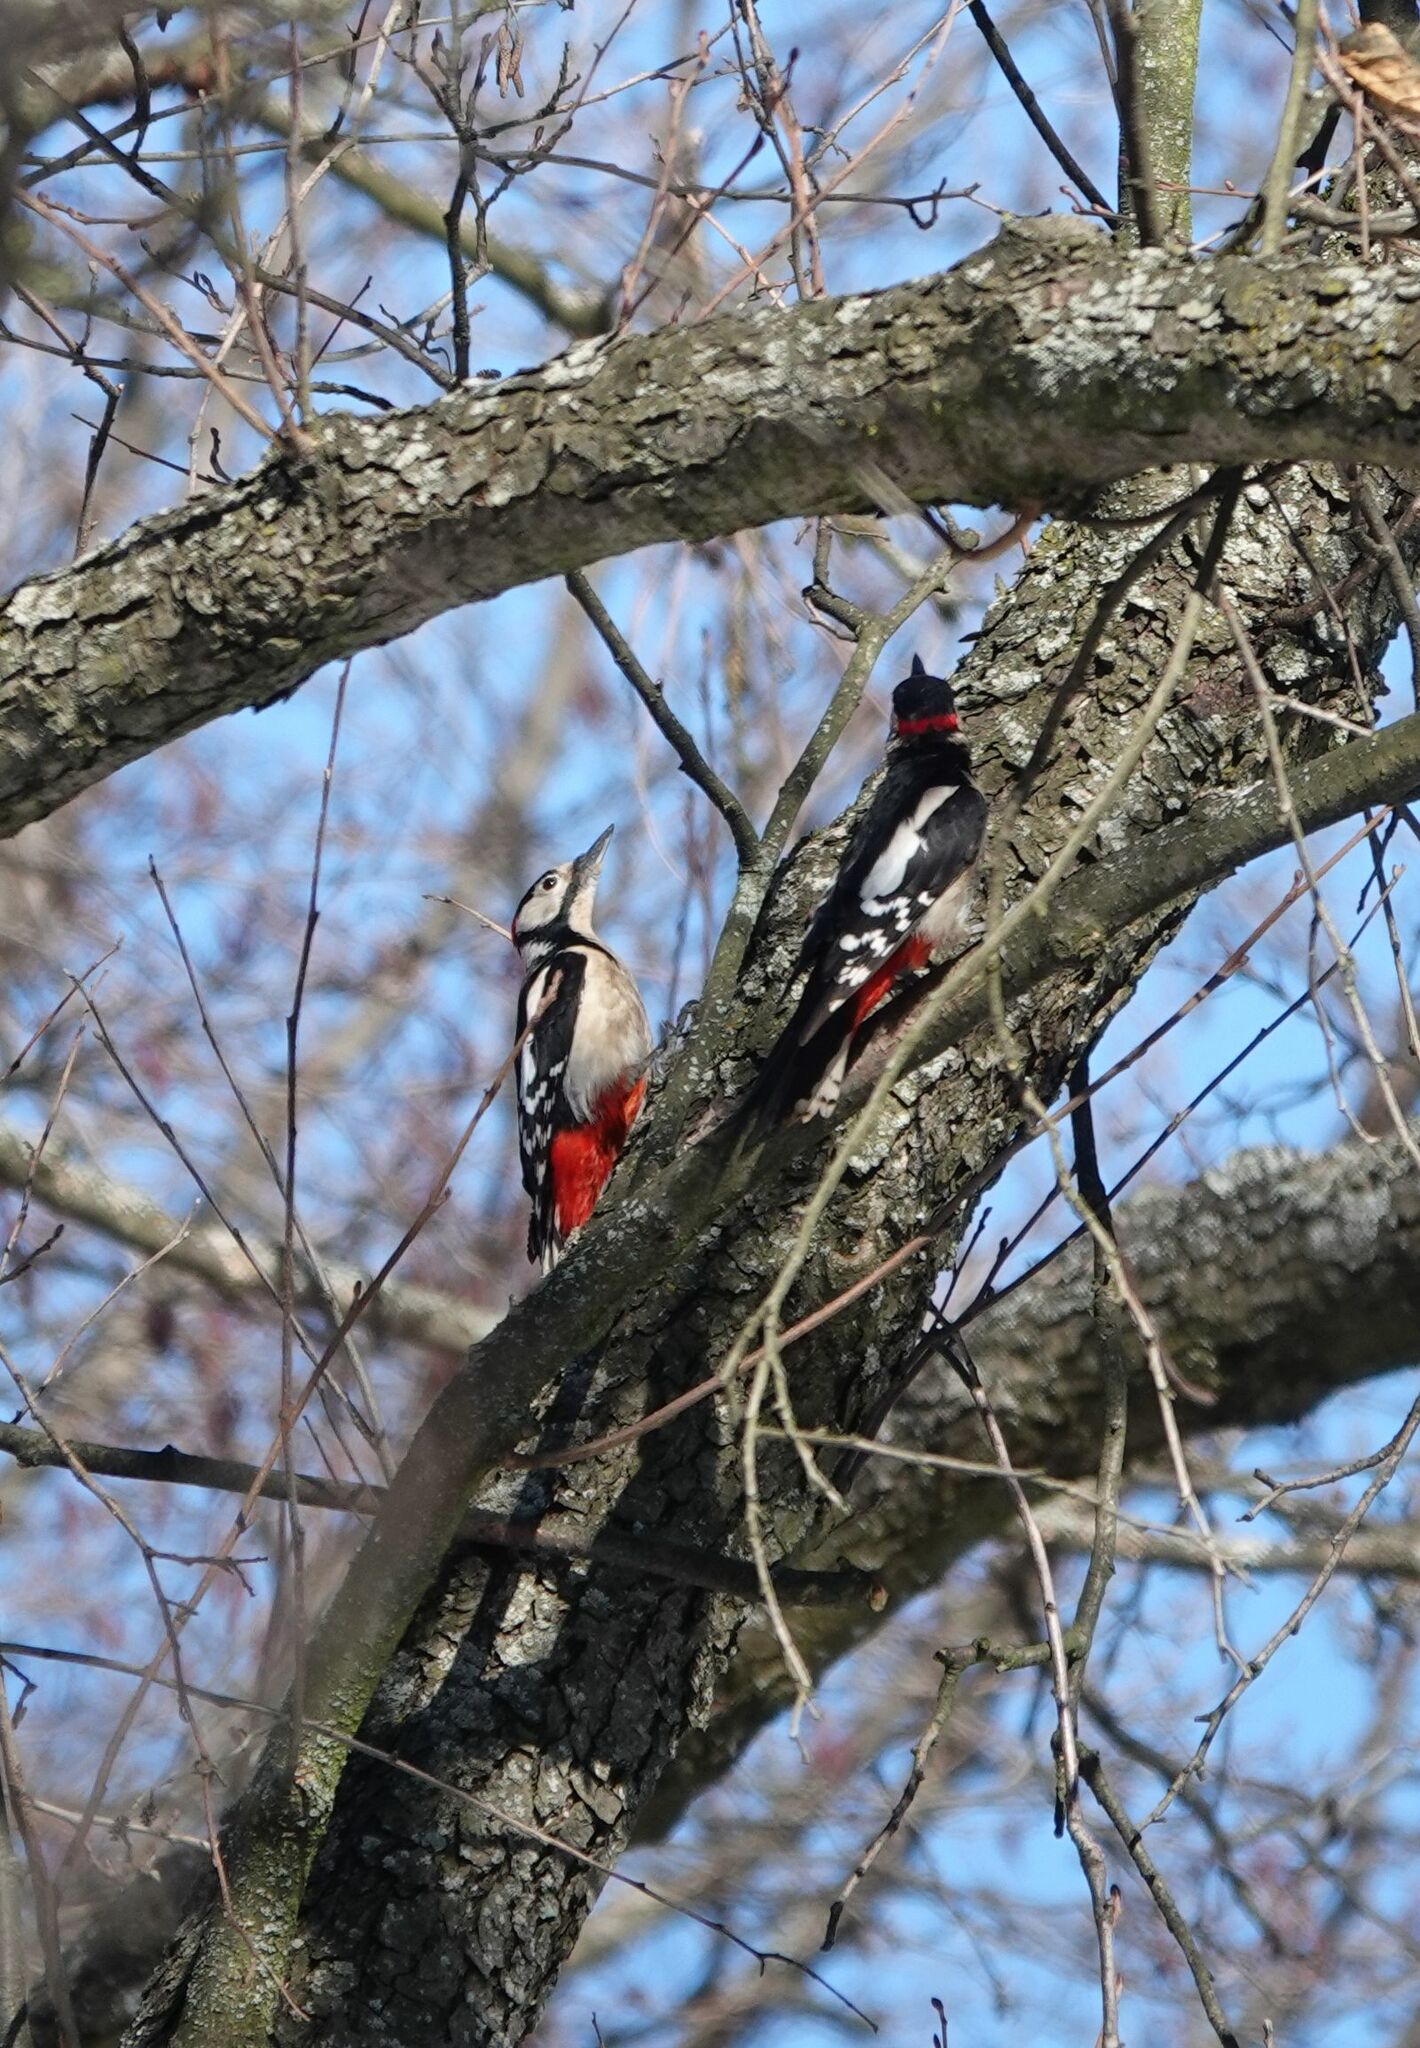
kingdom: Animalia
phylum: Chordata
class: Aves
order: Piciformes
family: Picidae
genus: Dendrocopos
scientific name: Dendrocopos major
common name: Great spotted woodpecker
